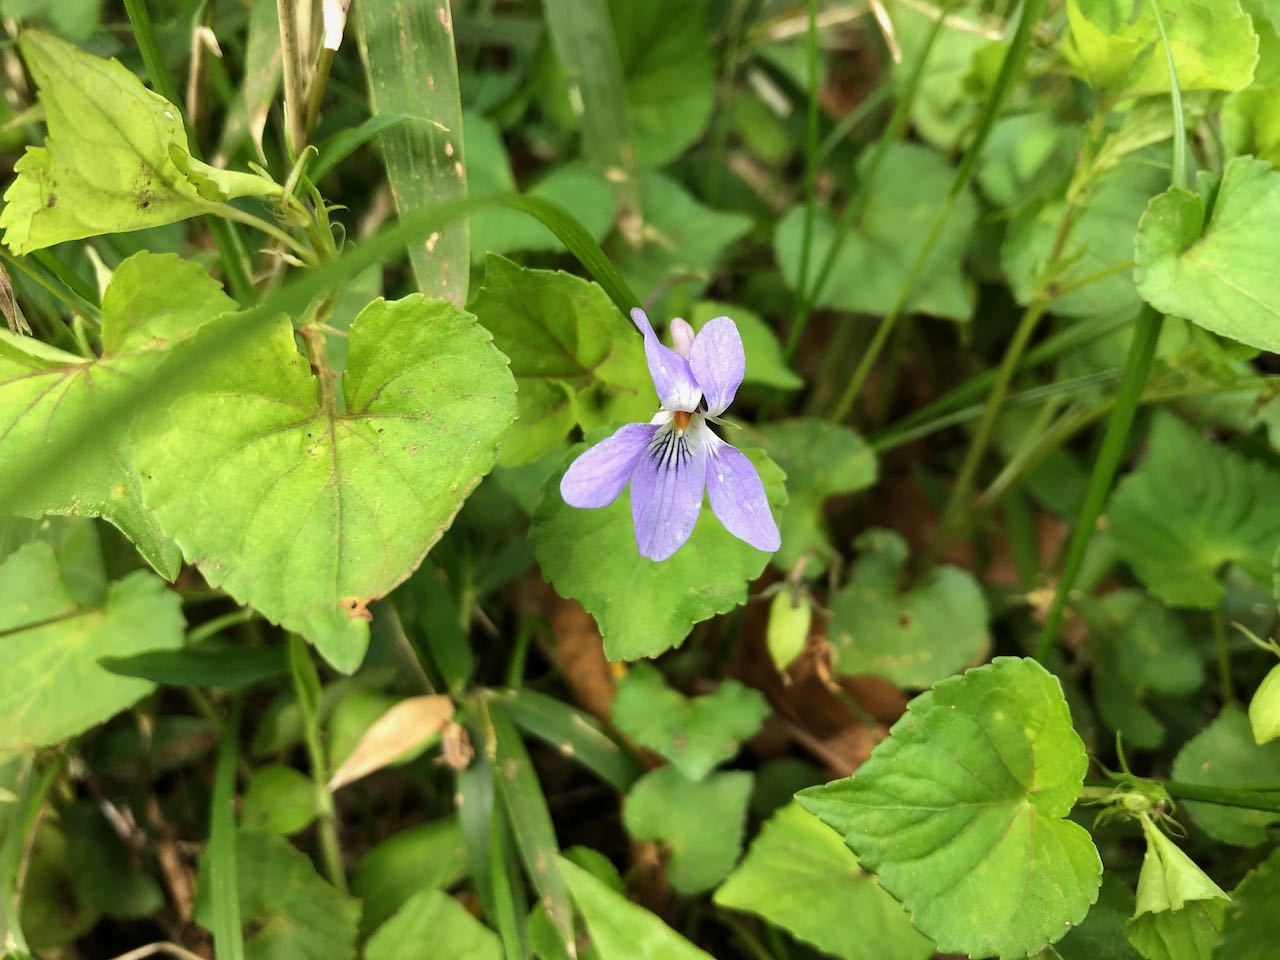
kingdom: Plantae
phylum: Tracheophyta
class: Magnoliopsida
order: Malpighiales
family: Violaceae
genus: Viola
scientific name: Viola grypoceras
